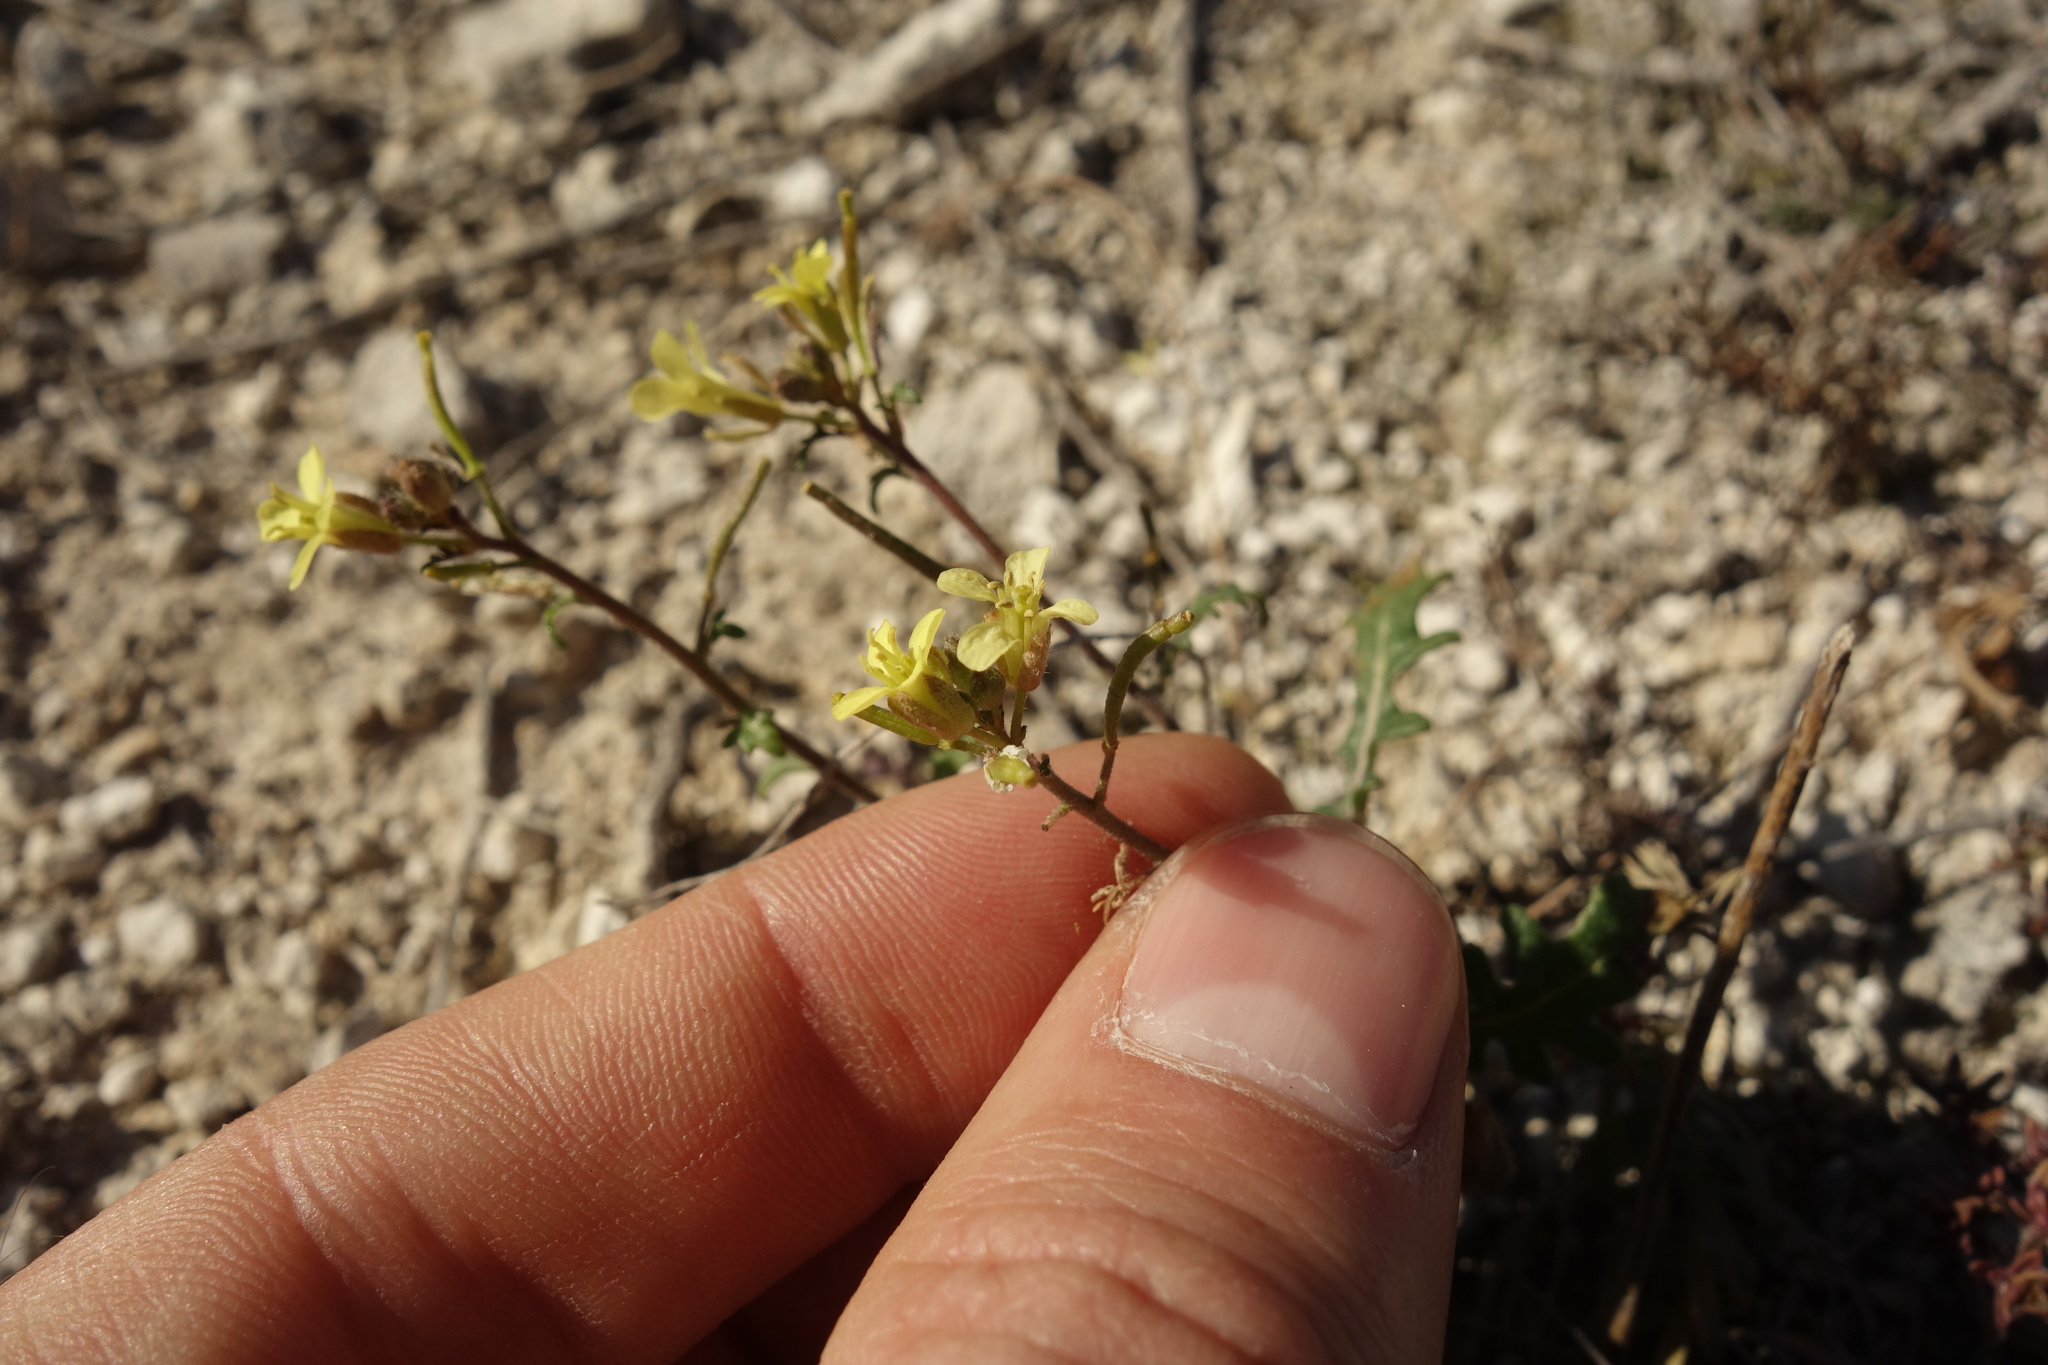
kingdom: Plantae
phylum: Tracheophyta
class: Magnoliopsida
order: Brassicales
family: Brassicaceae
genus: Erucastrum
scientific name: Erucastrum gallicum
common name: Hairy rocket
